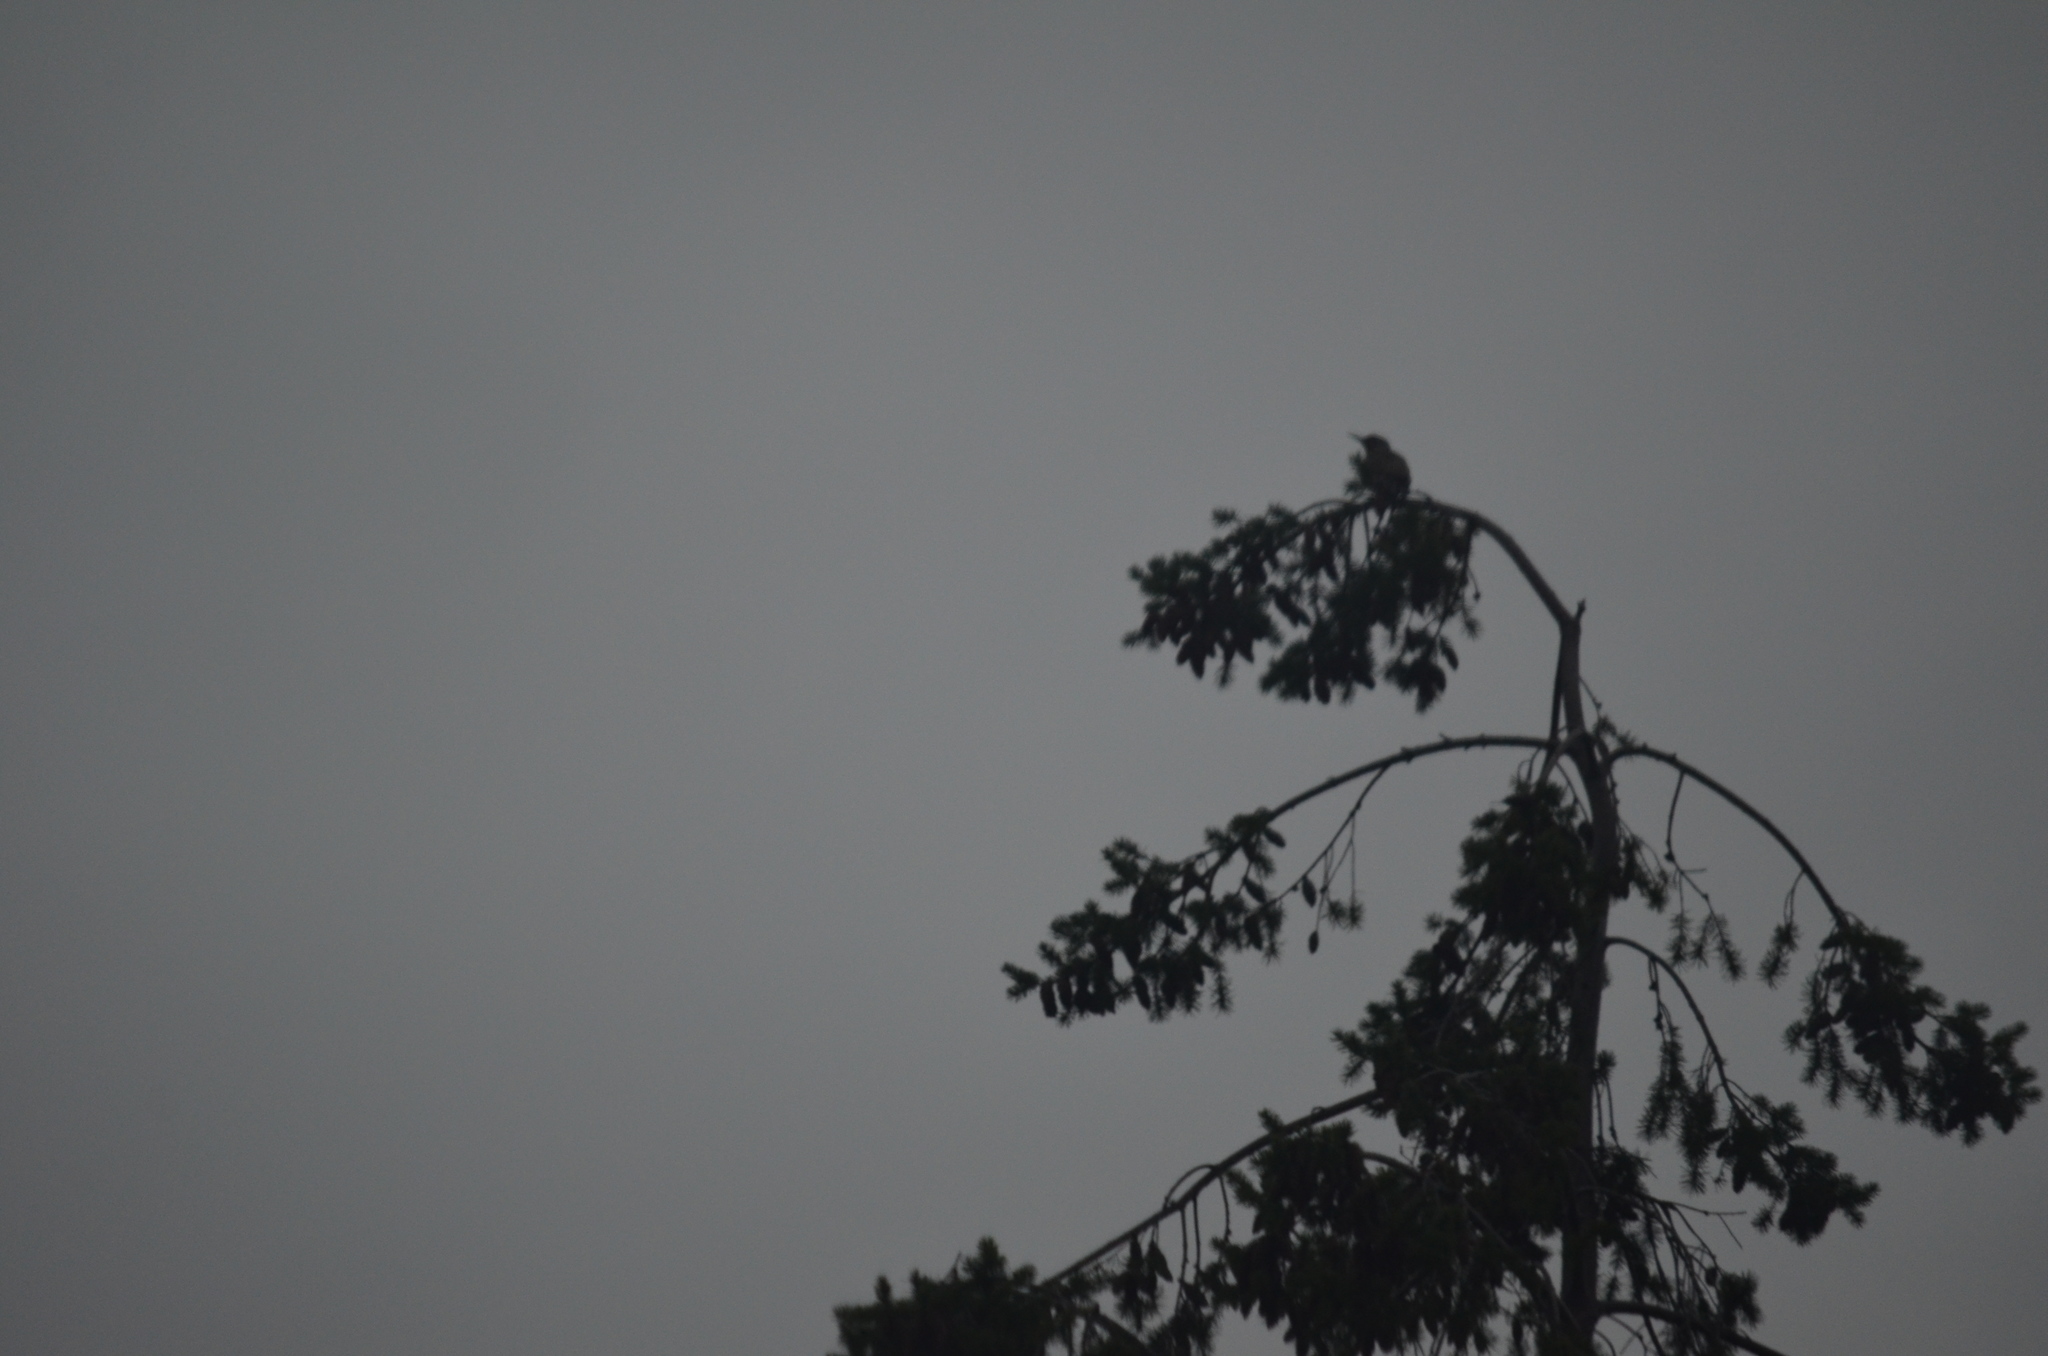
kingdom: Animalia
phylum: Chordata
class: Aves
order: Piciformes
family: Picidae
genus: Colaptes
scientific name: Colaptes auratus
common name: Northern flicker
